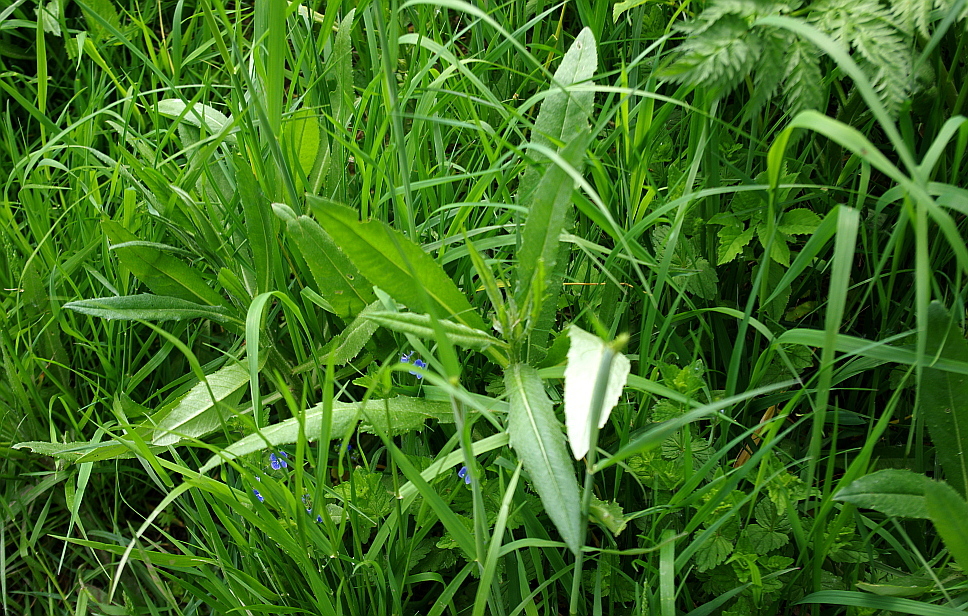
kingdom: Plantae
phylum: Tracheophyta
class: Magnoliopsida
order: Asterales
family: Asteraceae
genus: Cirsium
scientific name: Cirsium arvense
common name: Creeping thistle
